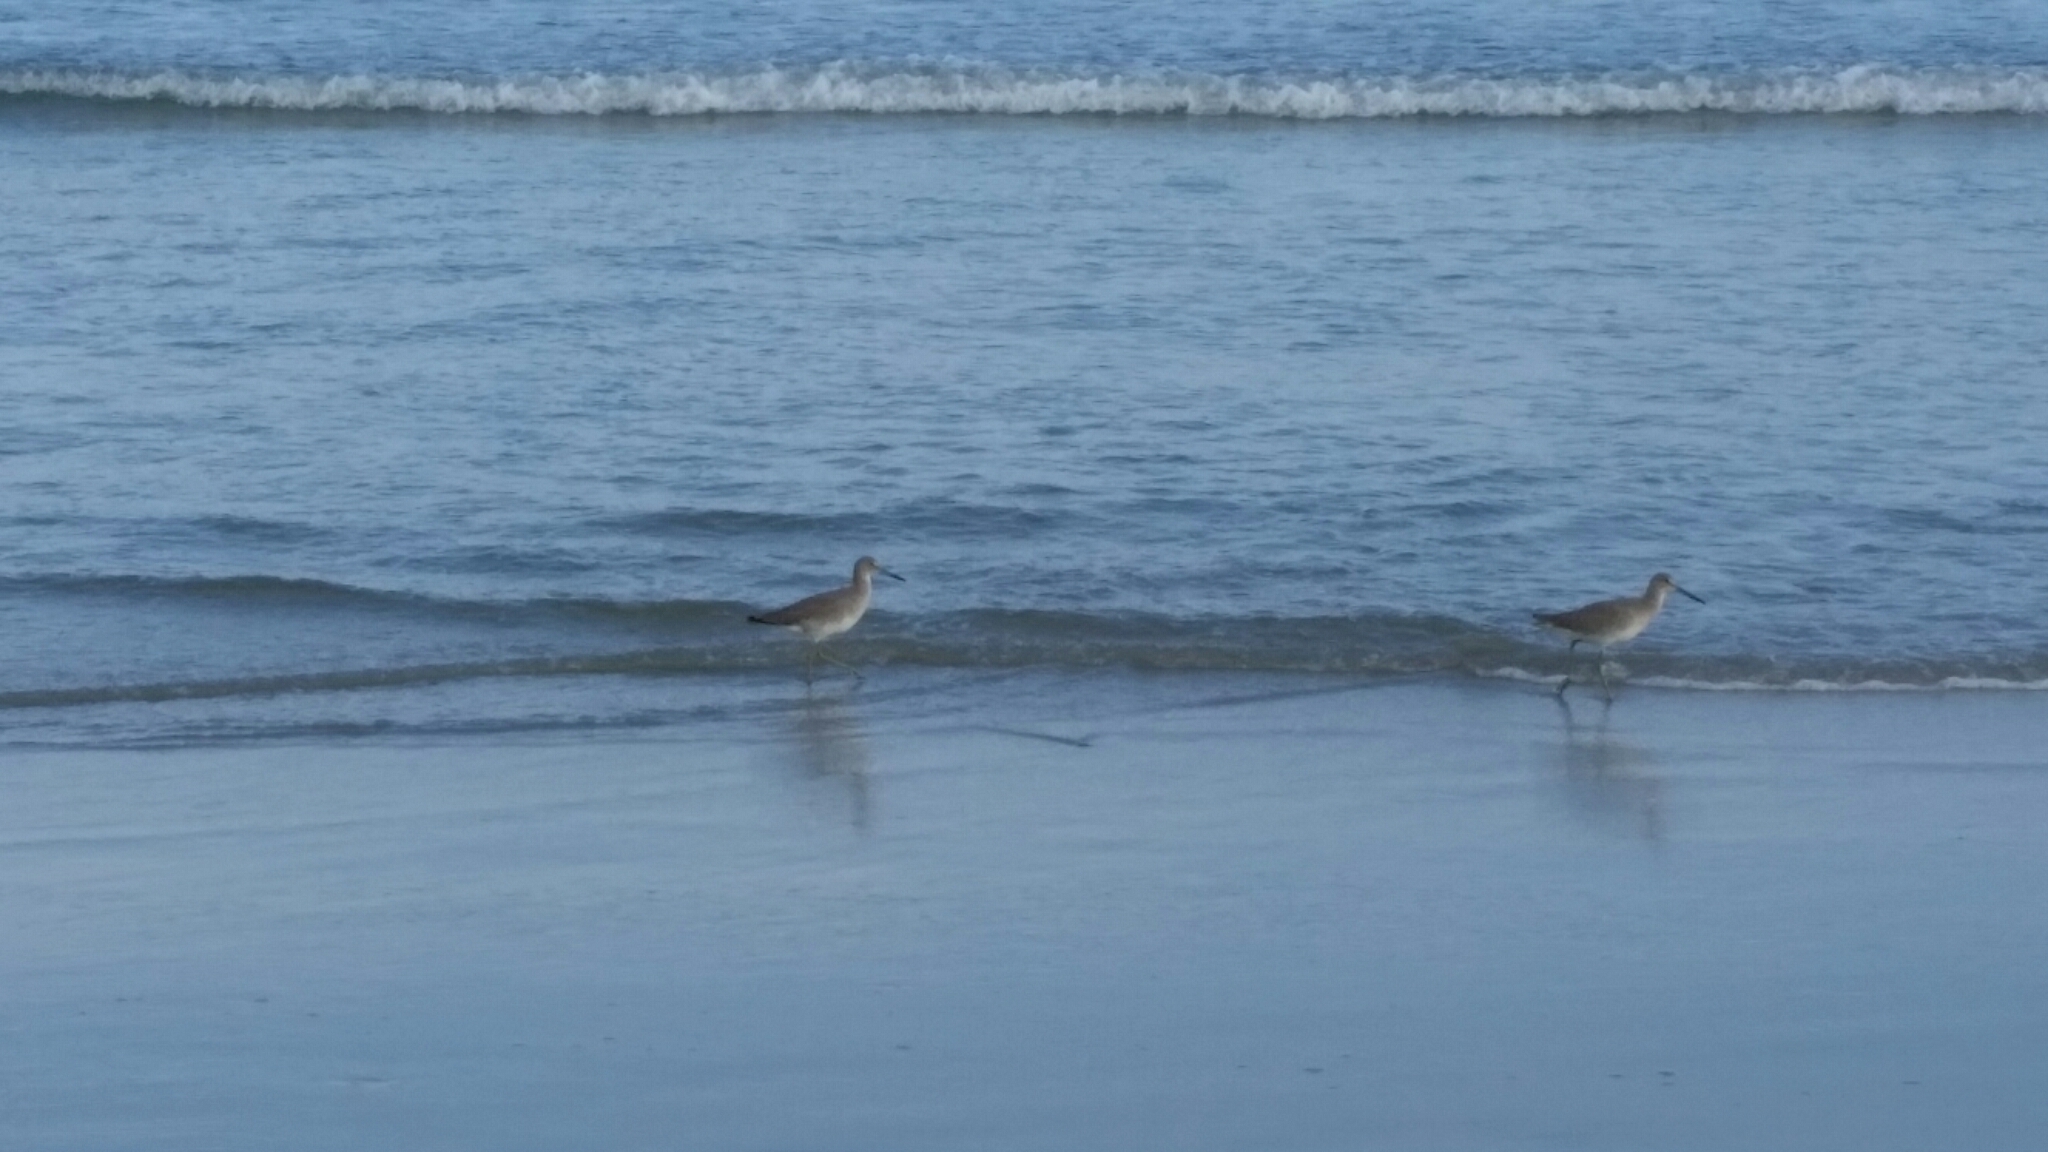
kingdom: Animalia
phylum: Chordata
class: Aves
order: Charadriiformes
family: Scolopacidae
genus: Tringa
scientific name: Tringa semipalmata
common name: Willet
